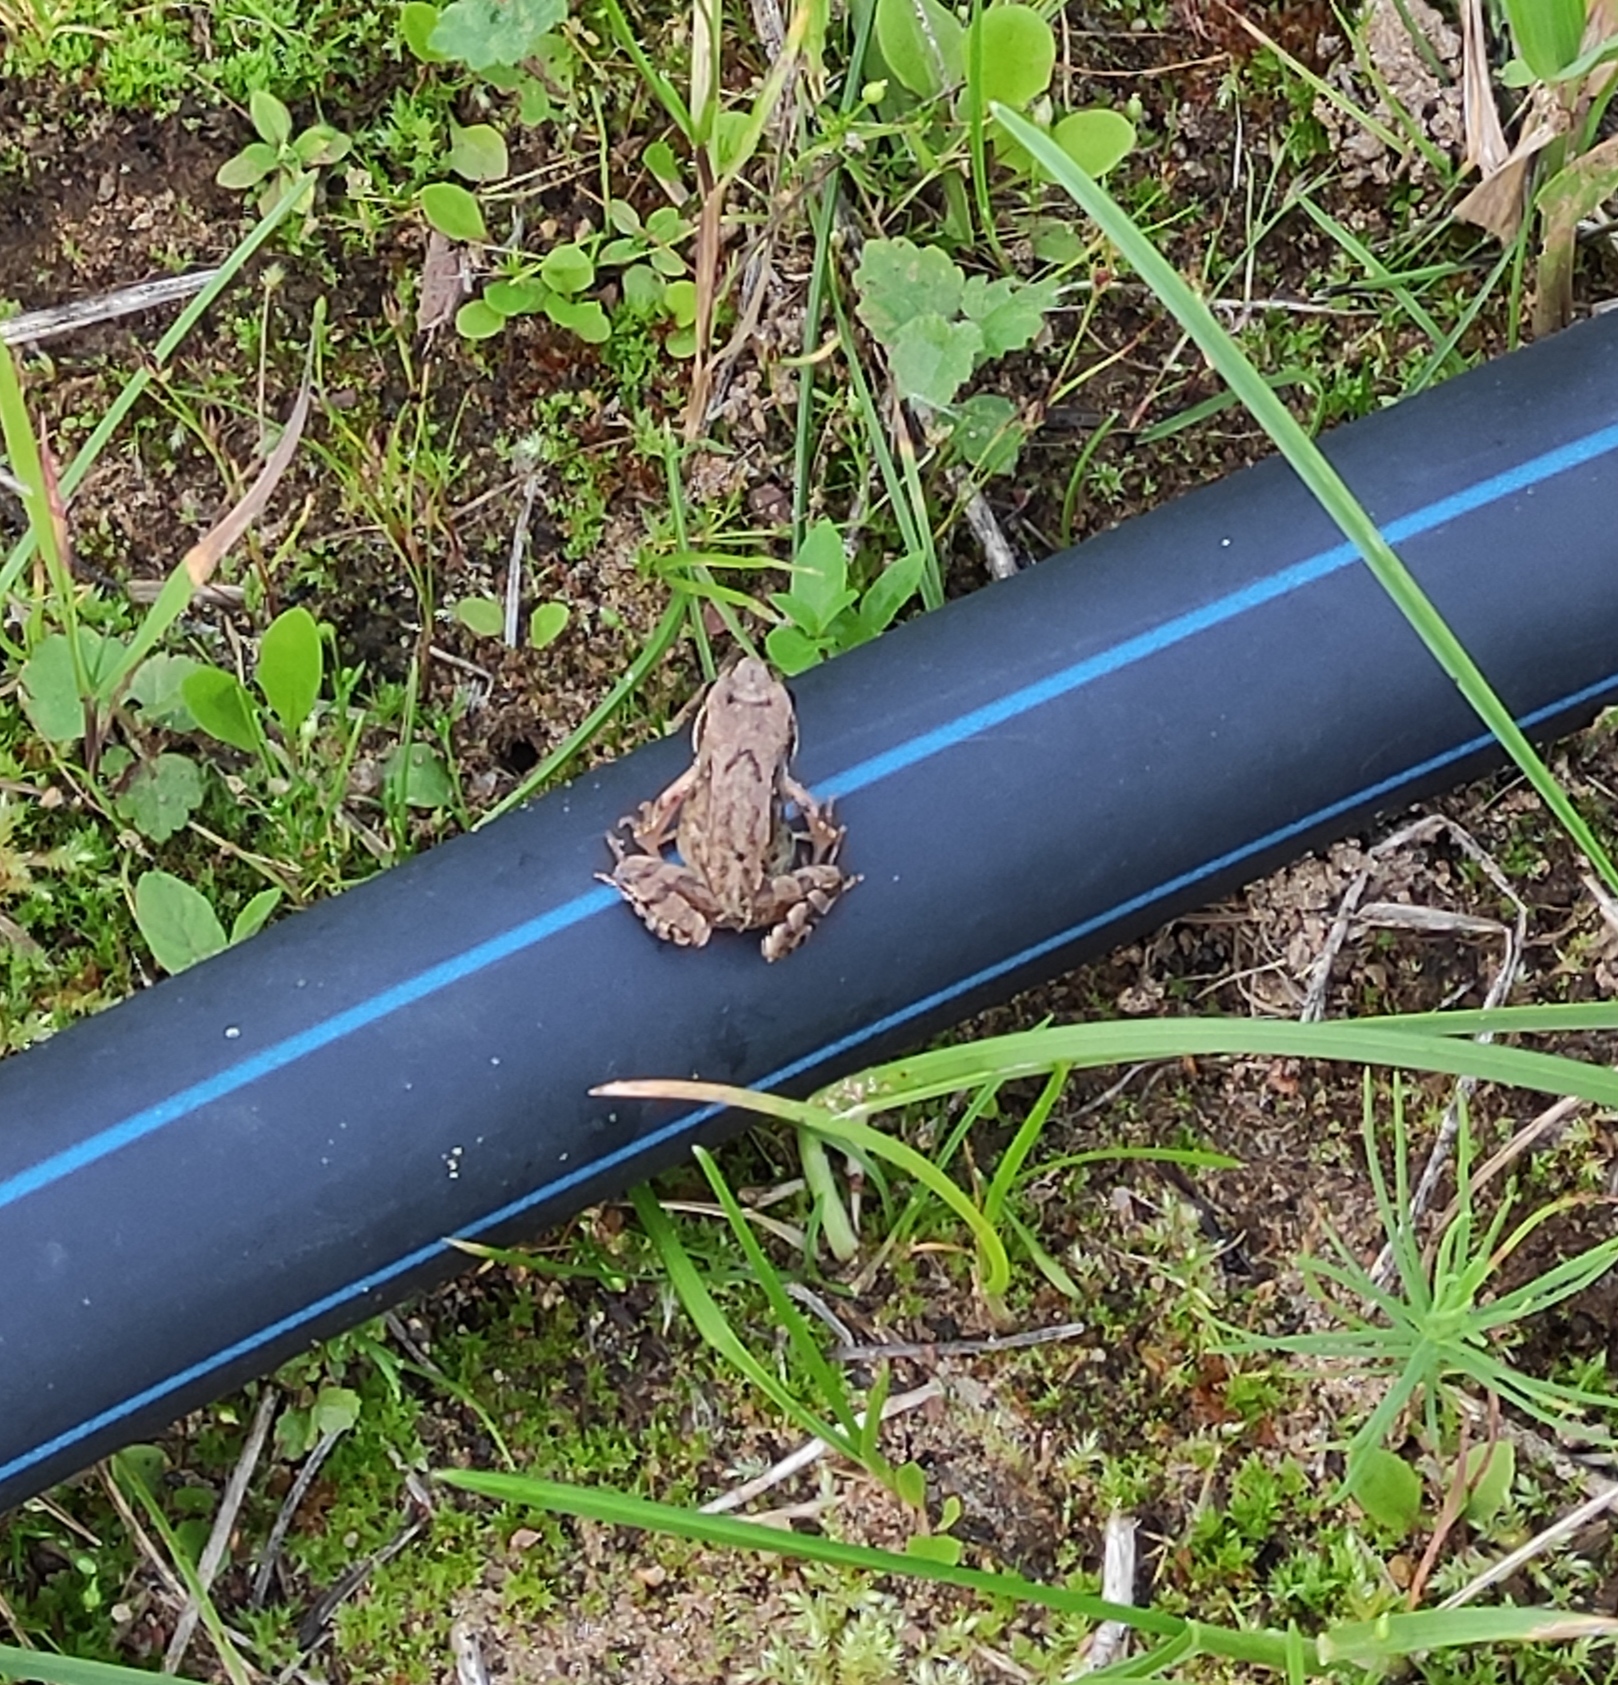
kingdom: Animalia
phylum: Chordata
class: Amphibia
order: Anura
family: Ranidae
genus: Rana
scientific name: Rana temporaria
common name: Common frog
